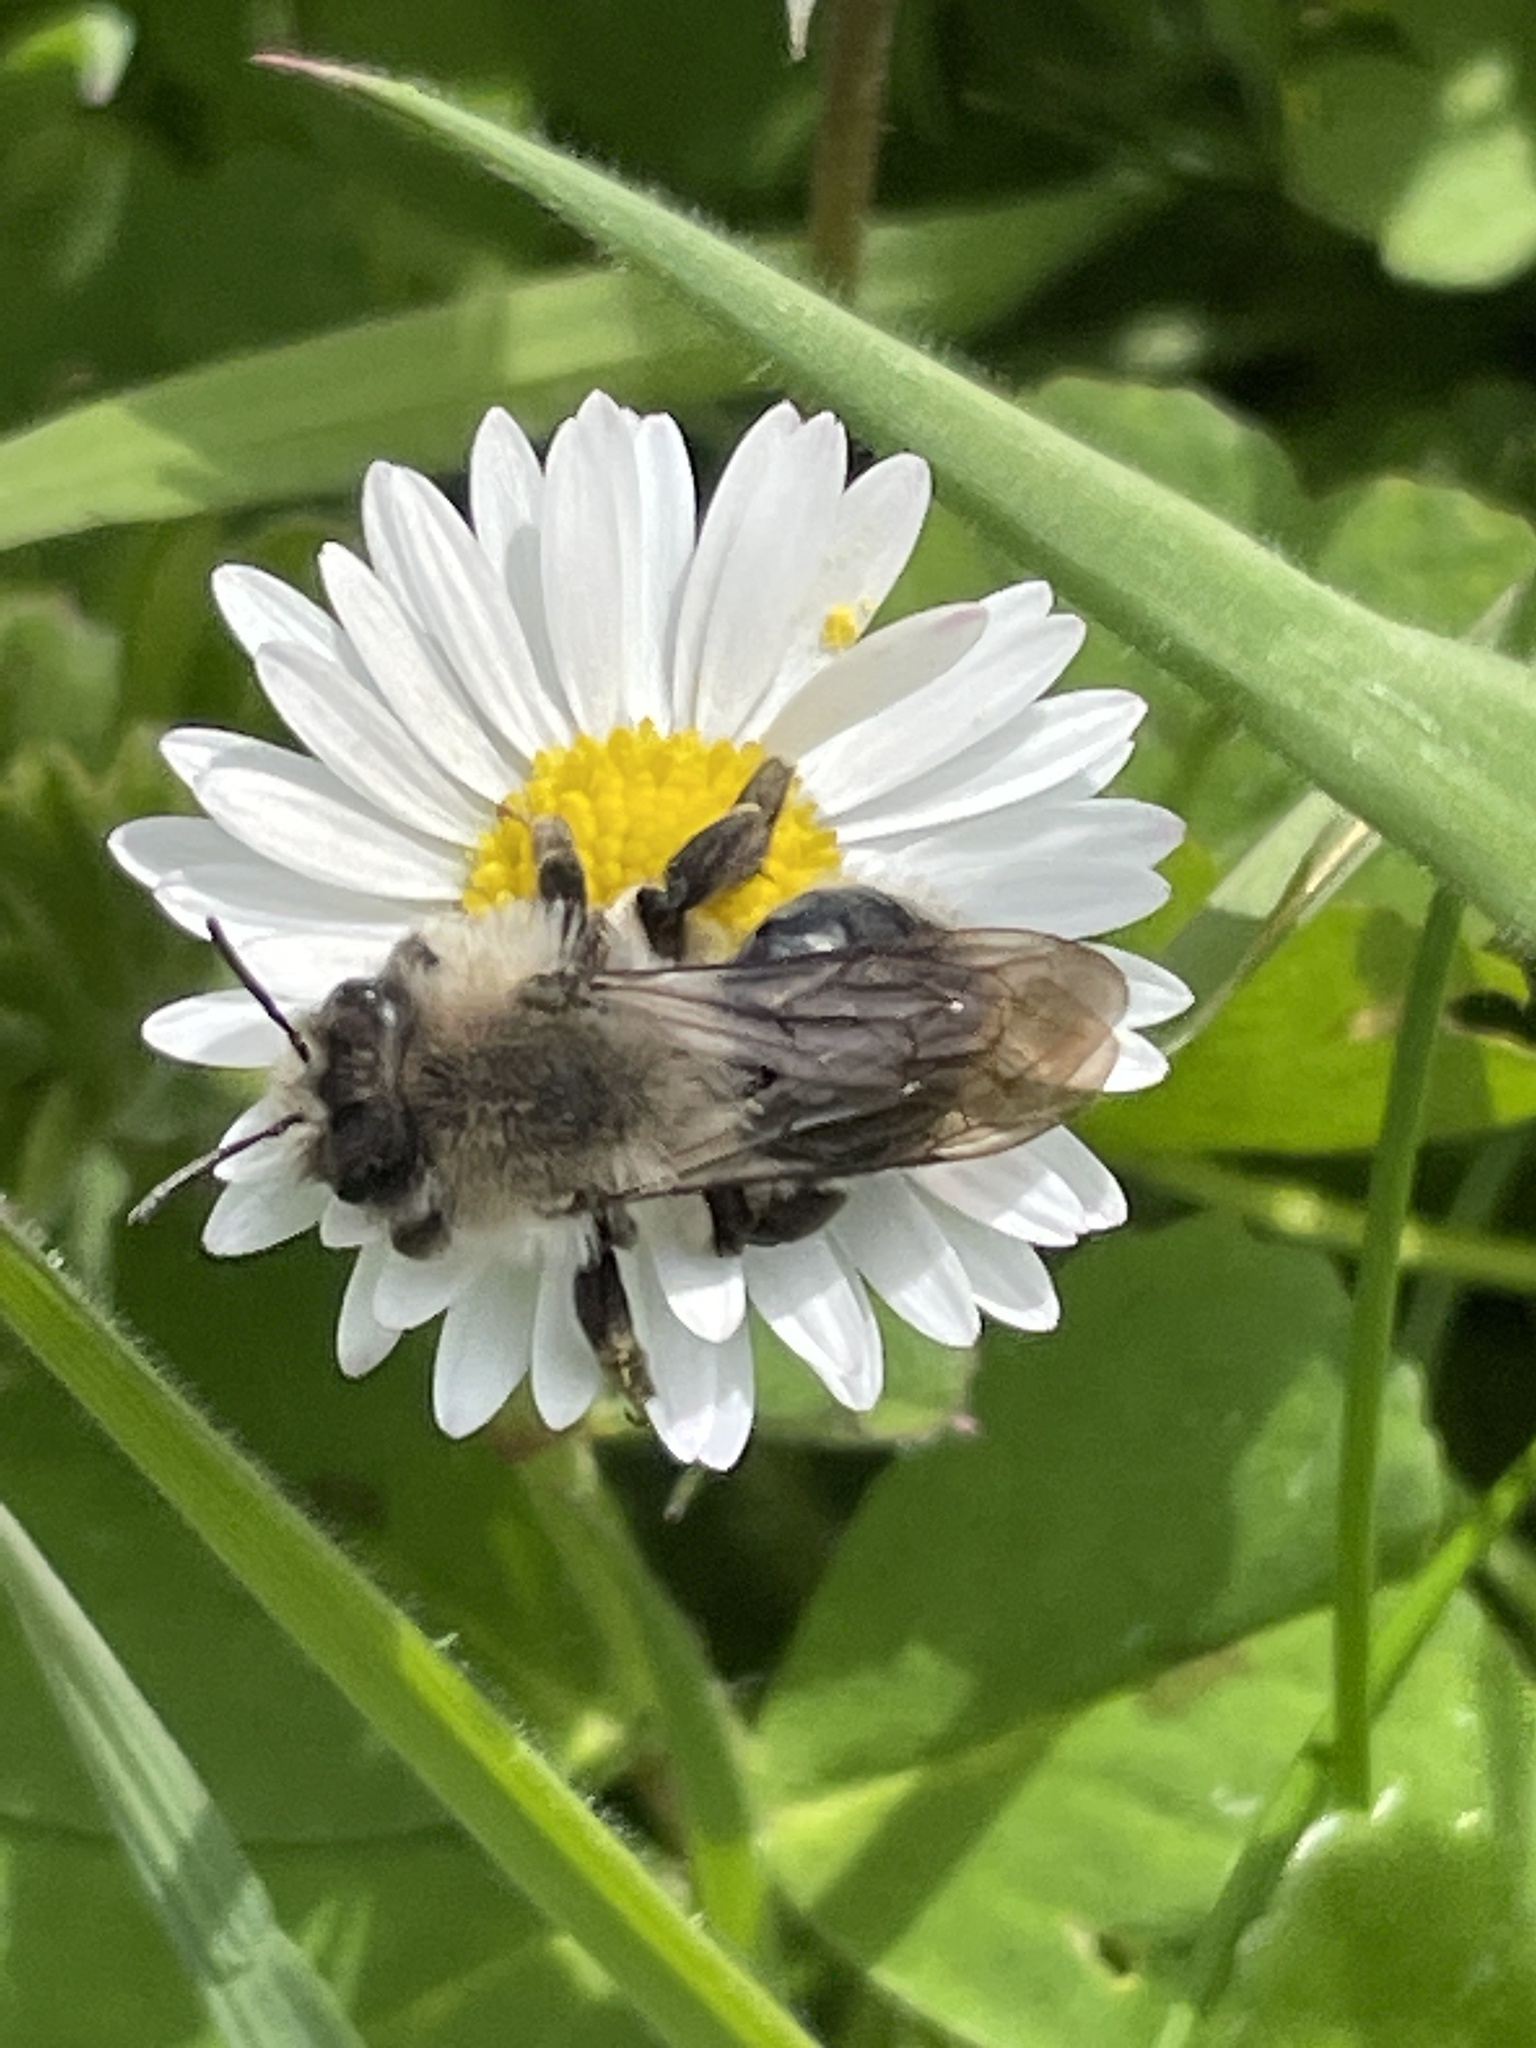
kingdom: Animalia
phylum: Arthropoda
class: Insecta
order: Hymenoptera
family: Andrenidae
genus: Andrena
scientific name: Andrena vaga
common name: Grey-backed mining bee
